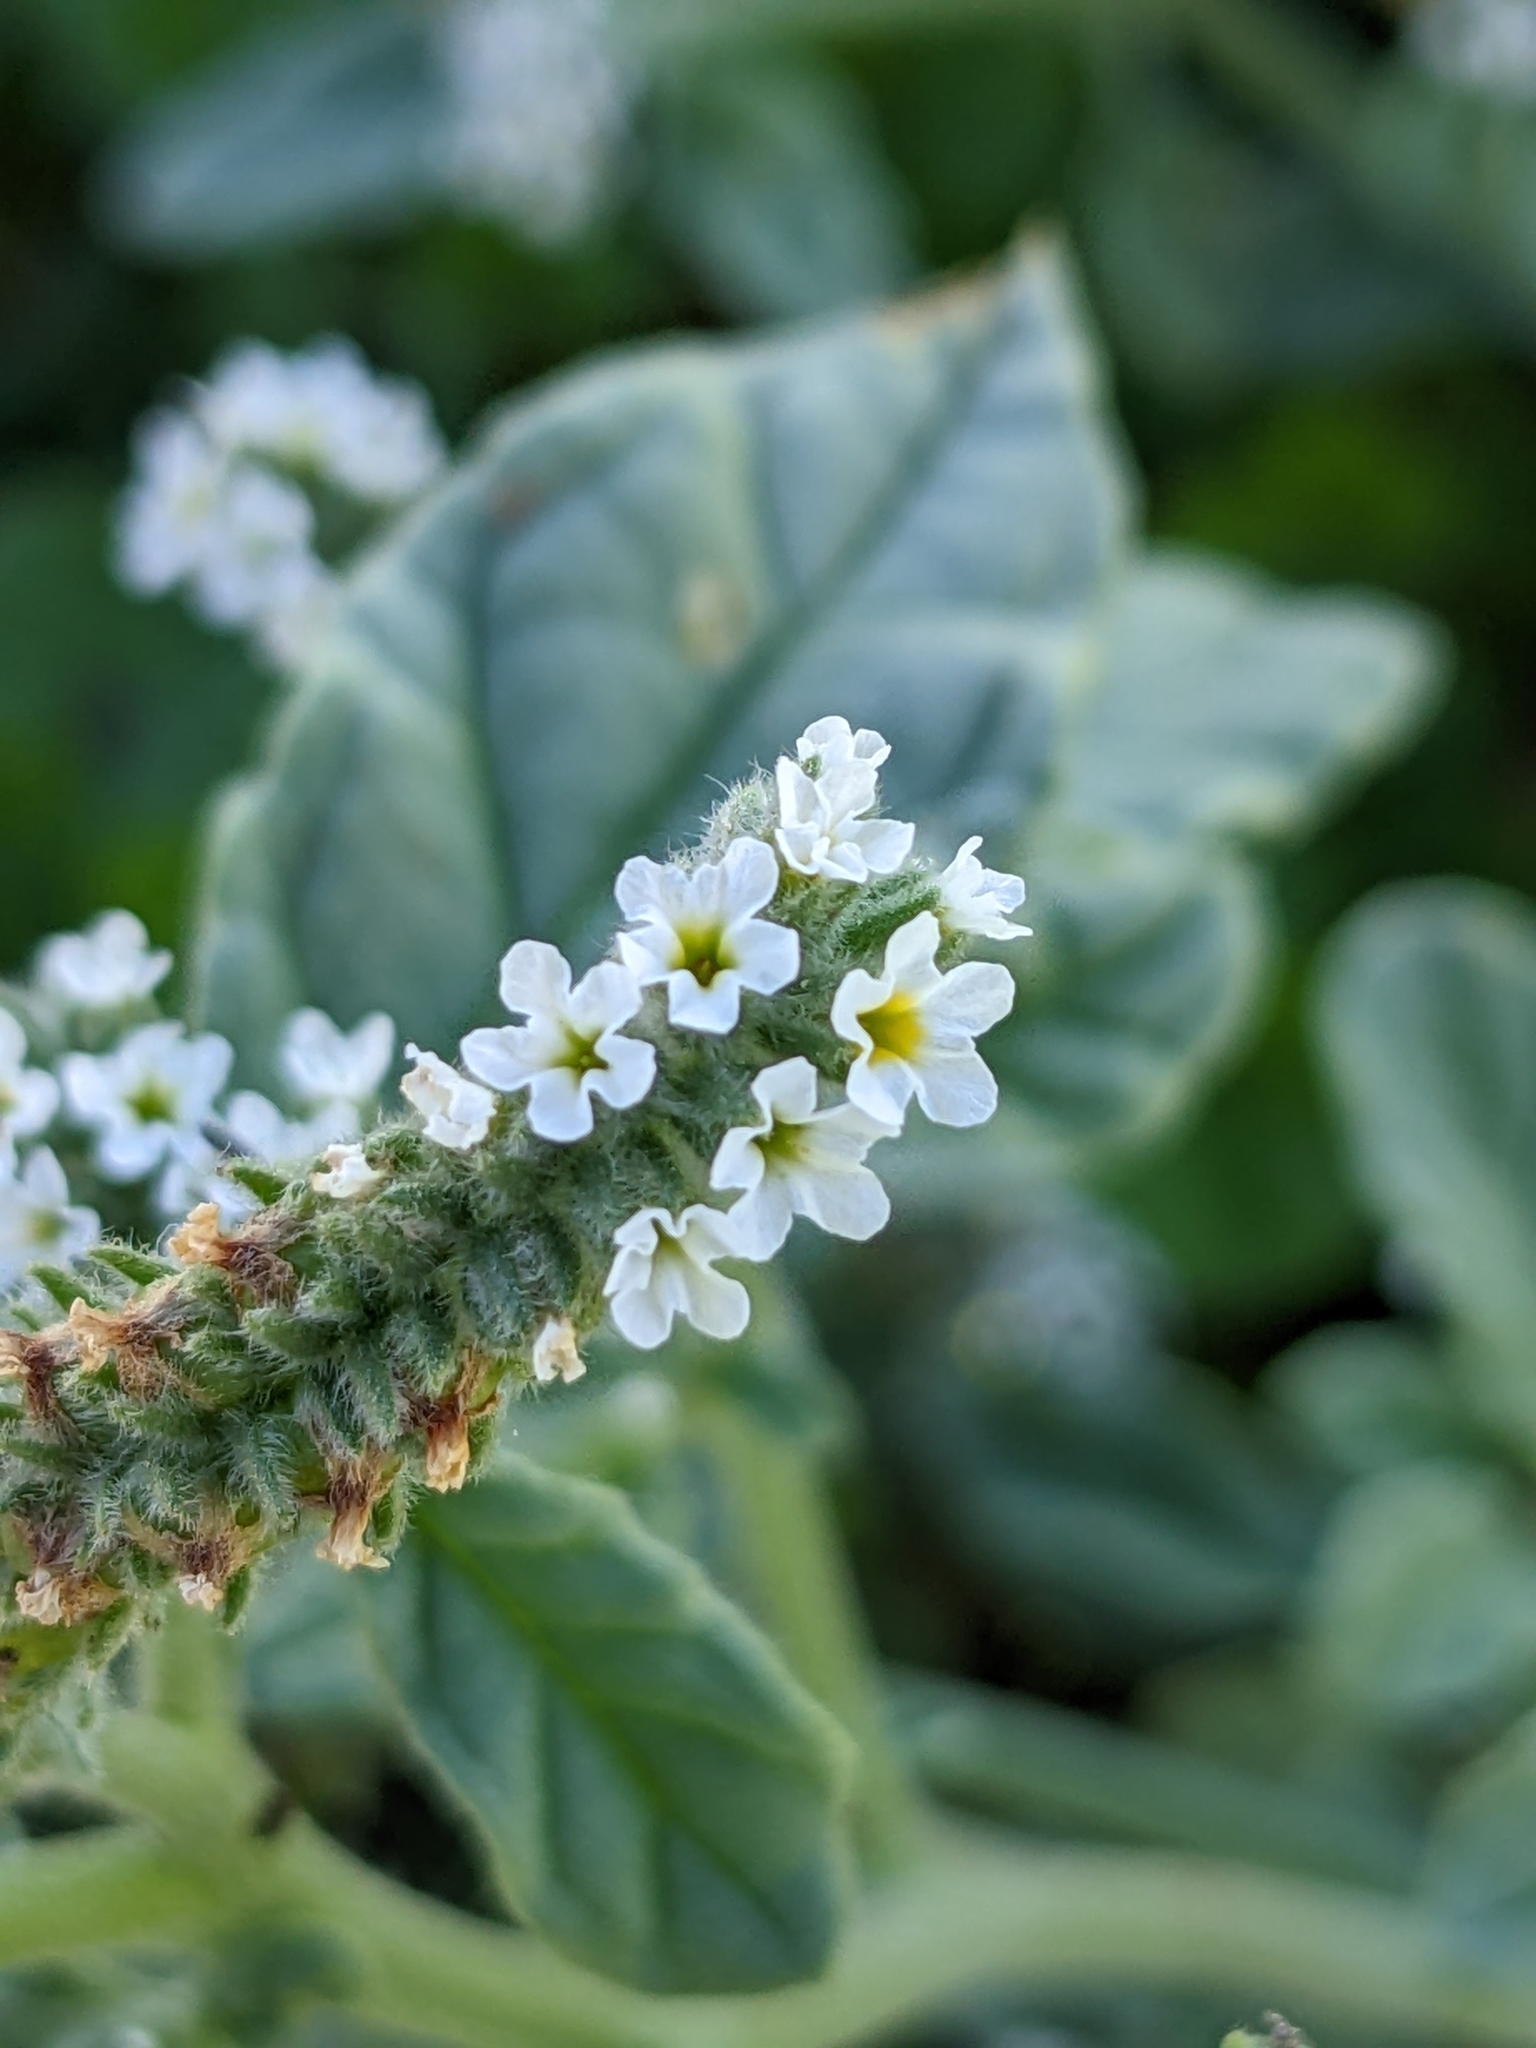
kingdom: Plantae
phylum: Tracheophyta
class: Magnoliopsida
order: Boraginales
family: Heliotropiaceae
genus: Heliotropium
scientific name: Heliotropium europaeum
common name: European heliotrope
